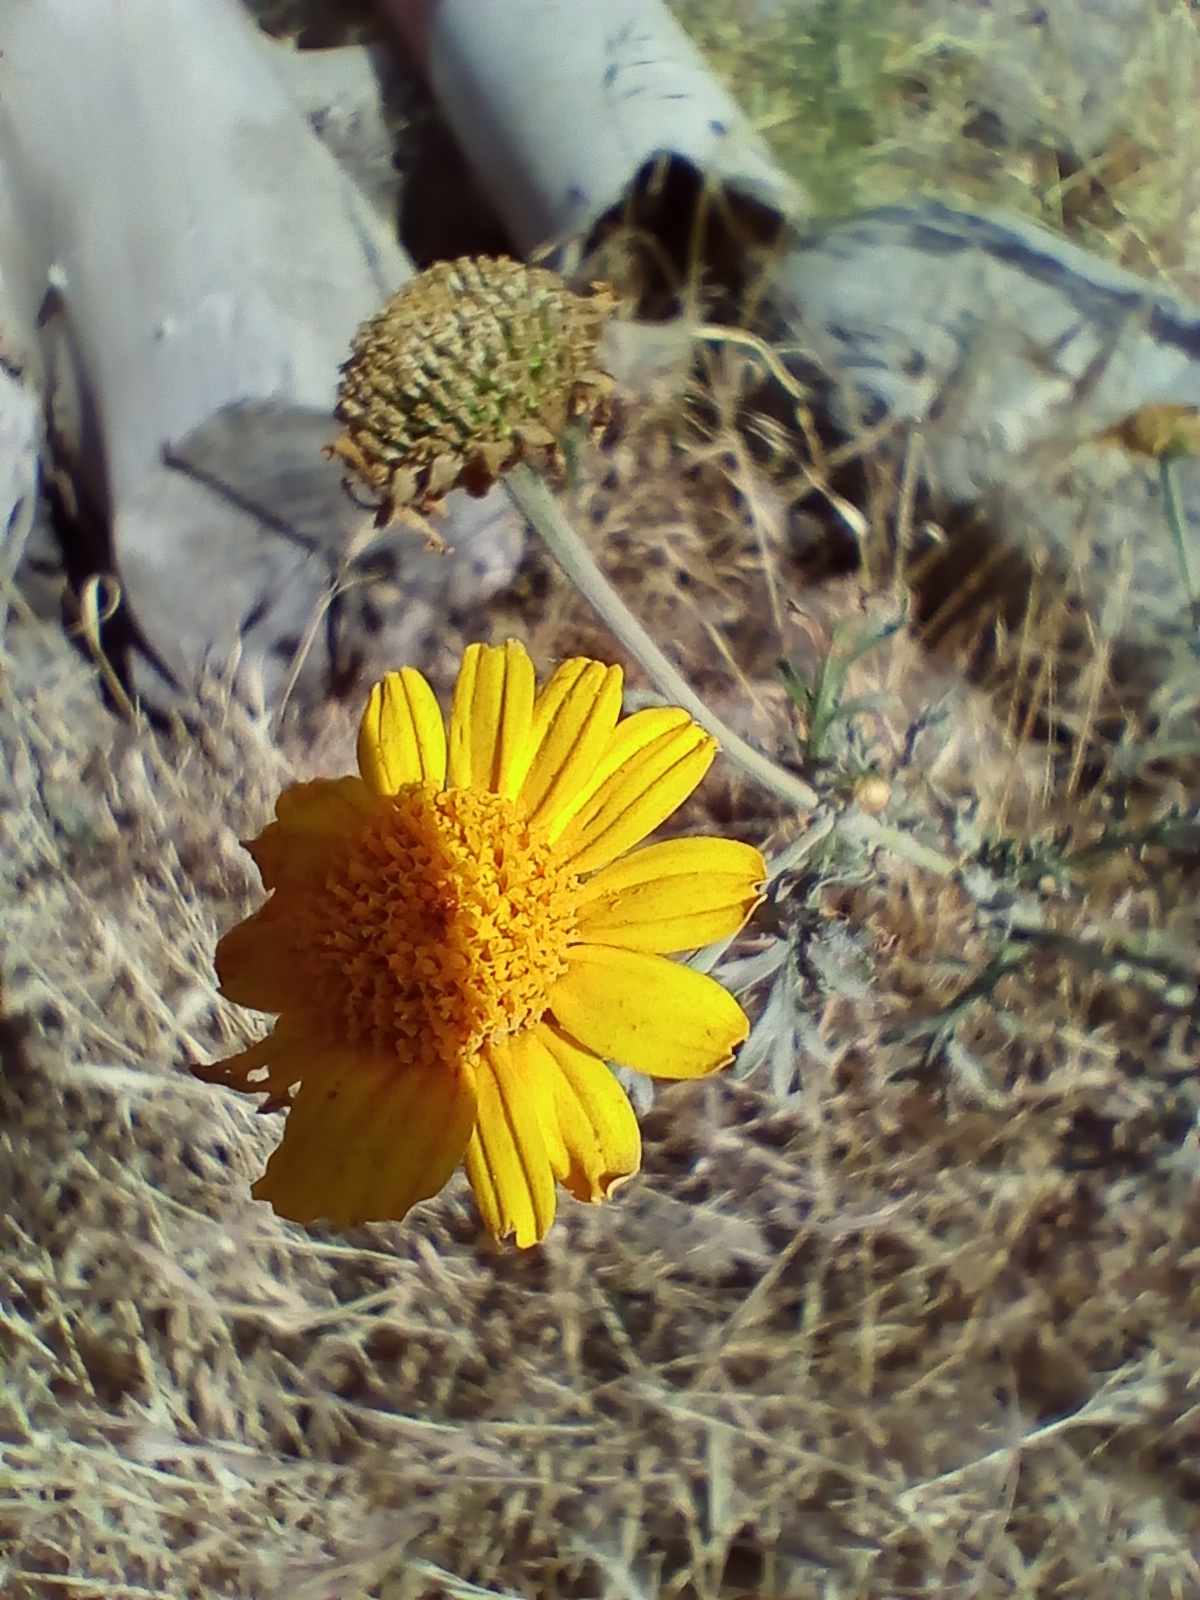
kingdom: Plantae
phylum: Tracheophyta
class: Magnoliopsida
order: Asterales
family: Asteraceae
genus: Glebionis
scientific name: Glebionis coronaria
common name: Crowndaisy
